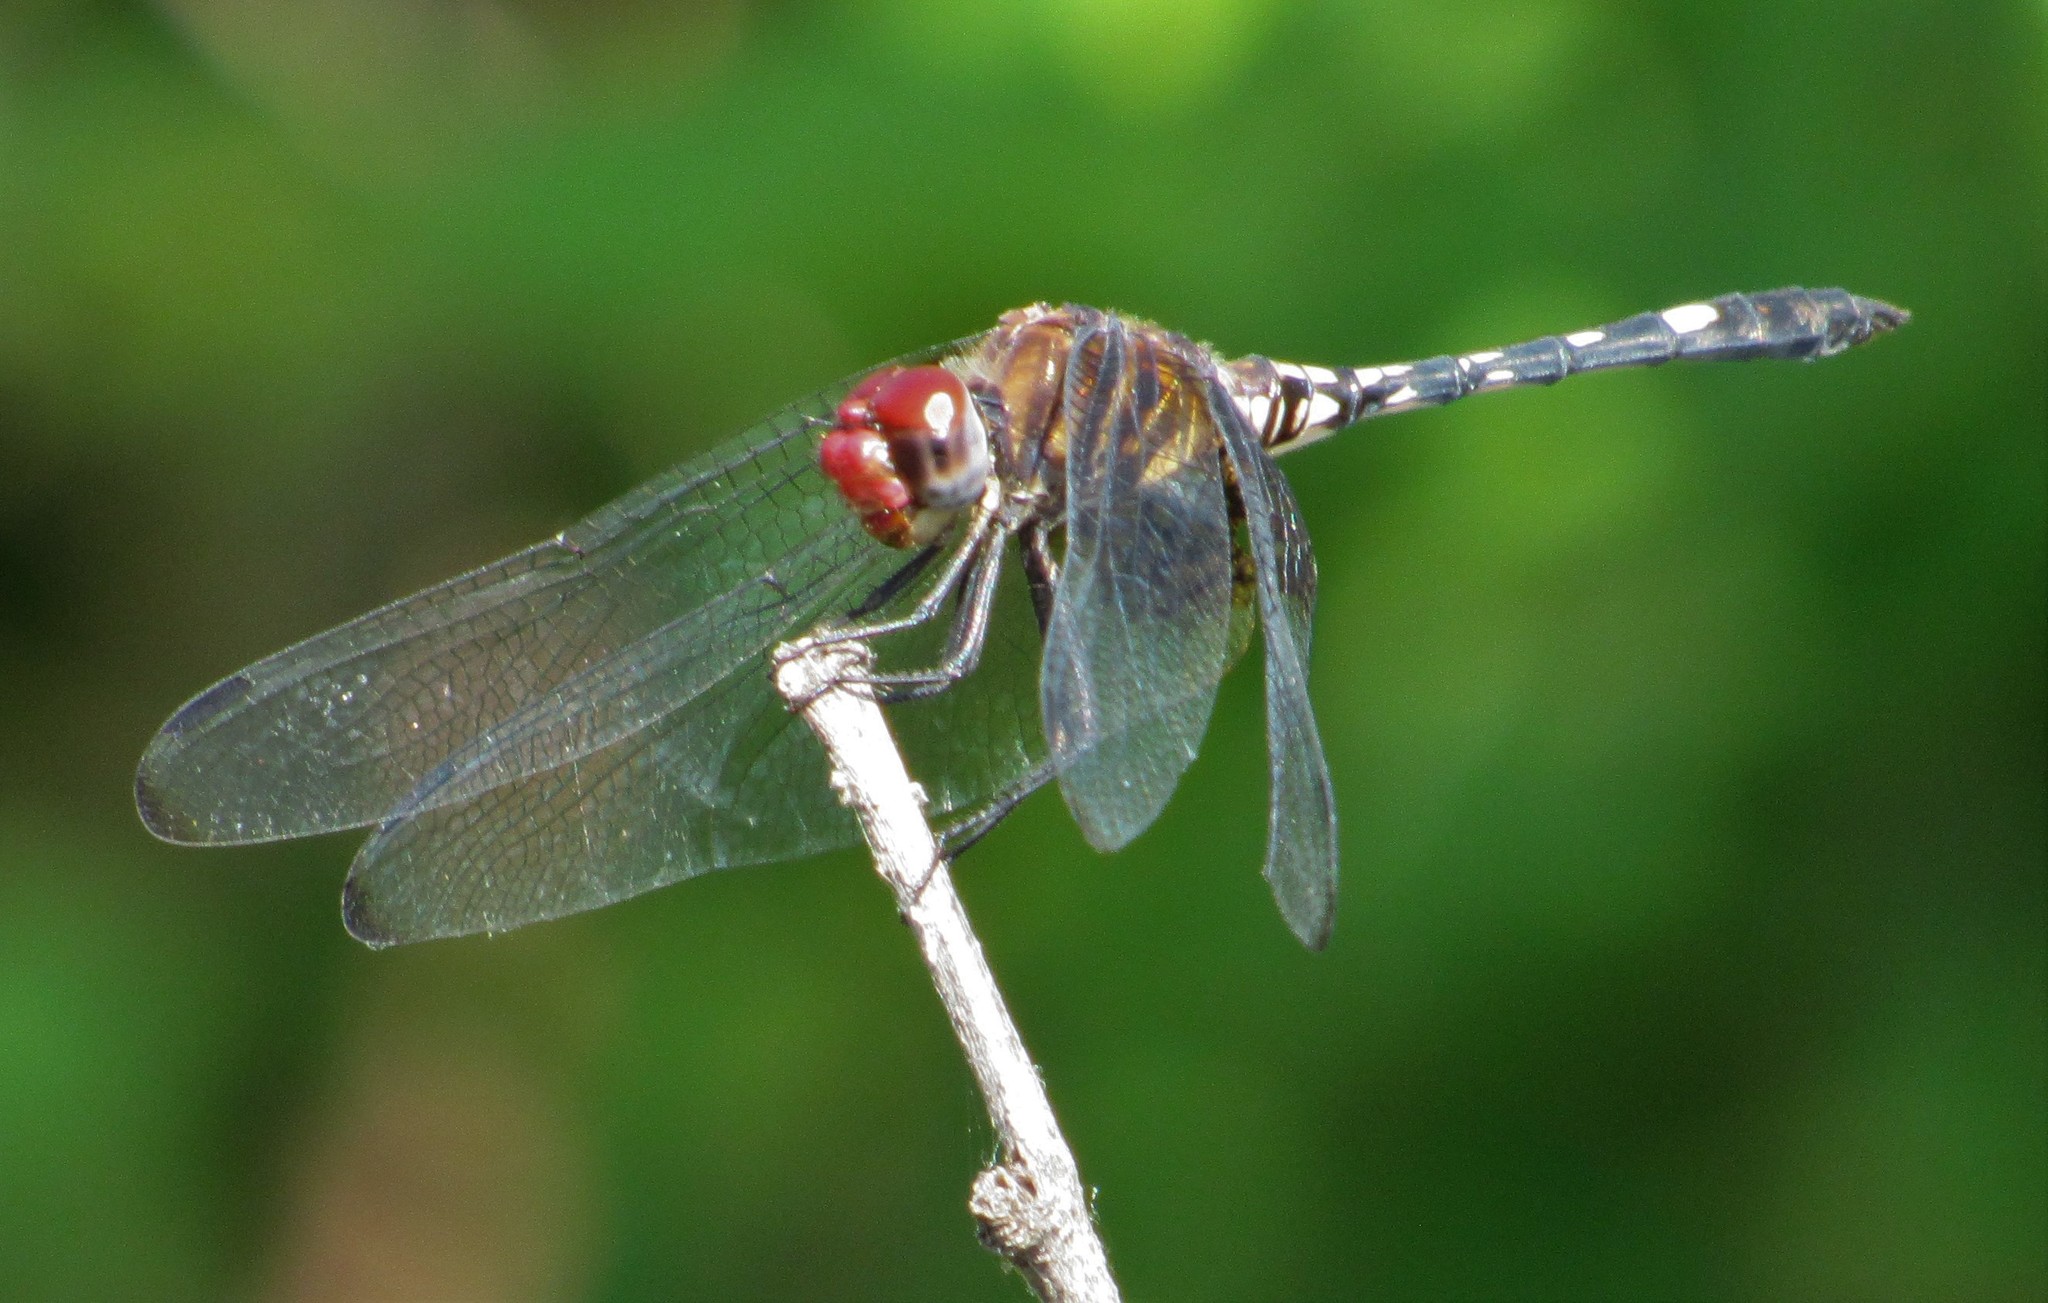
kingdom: Animalia
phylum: Arthropoda
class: Insecta
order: Odonata
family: Libellulidae
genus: Dythemis
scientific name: Dythemis fugax
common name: Checkered setwing
